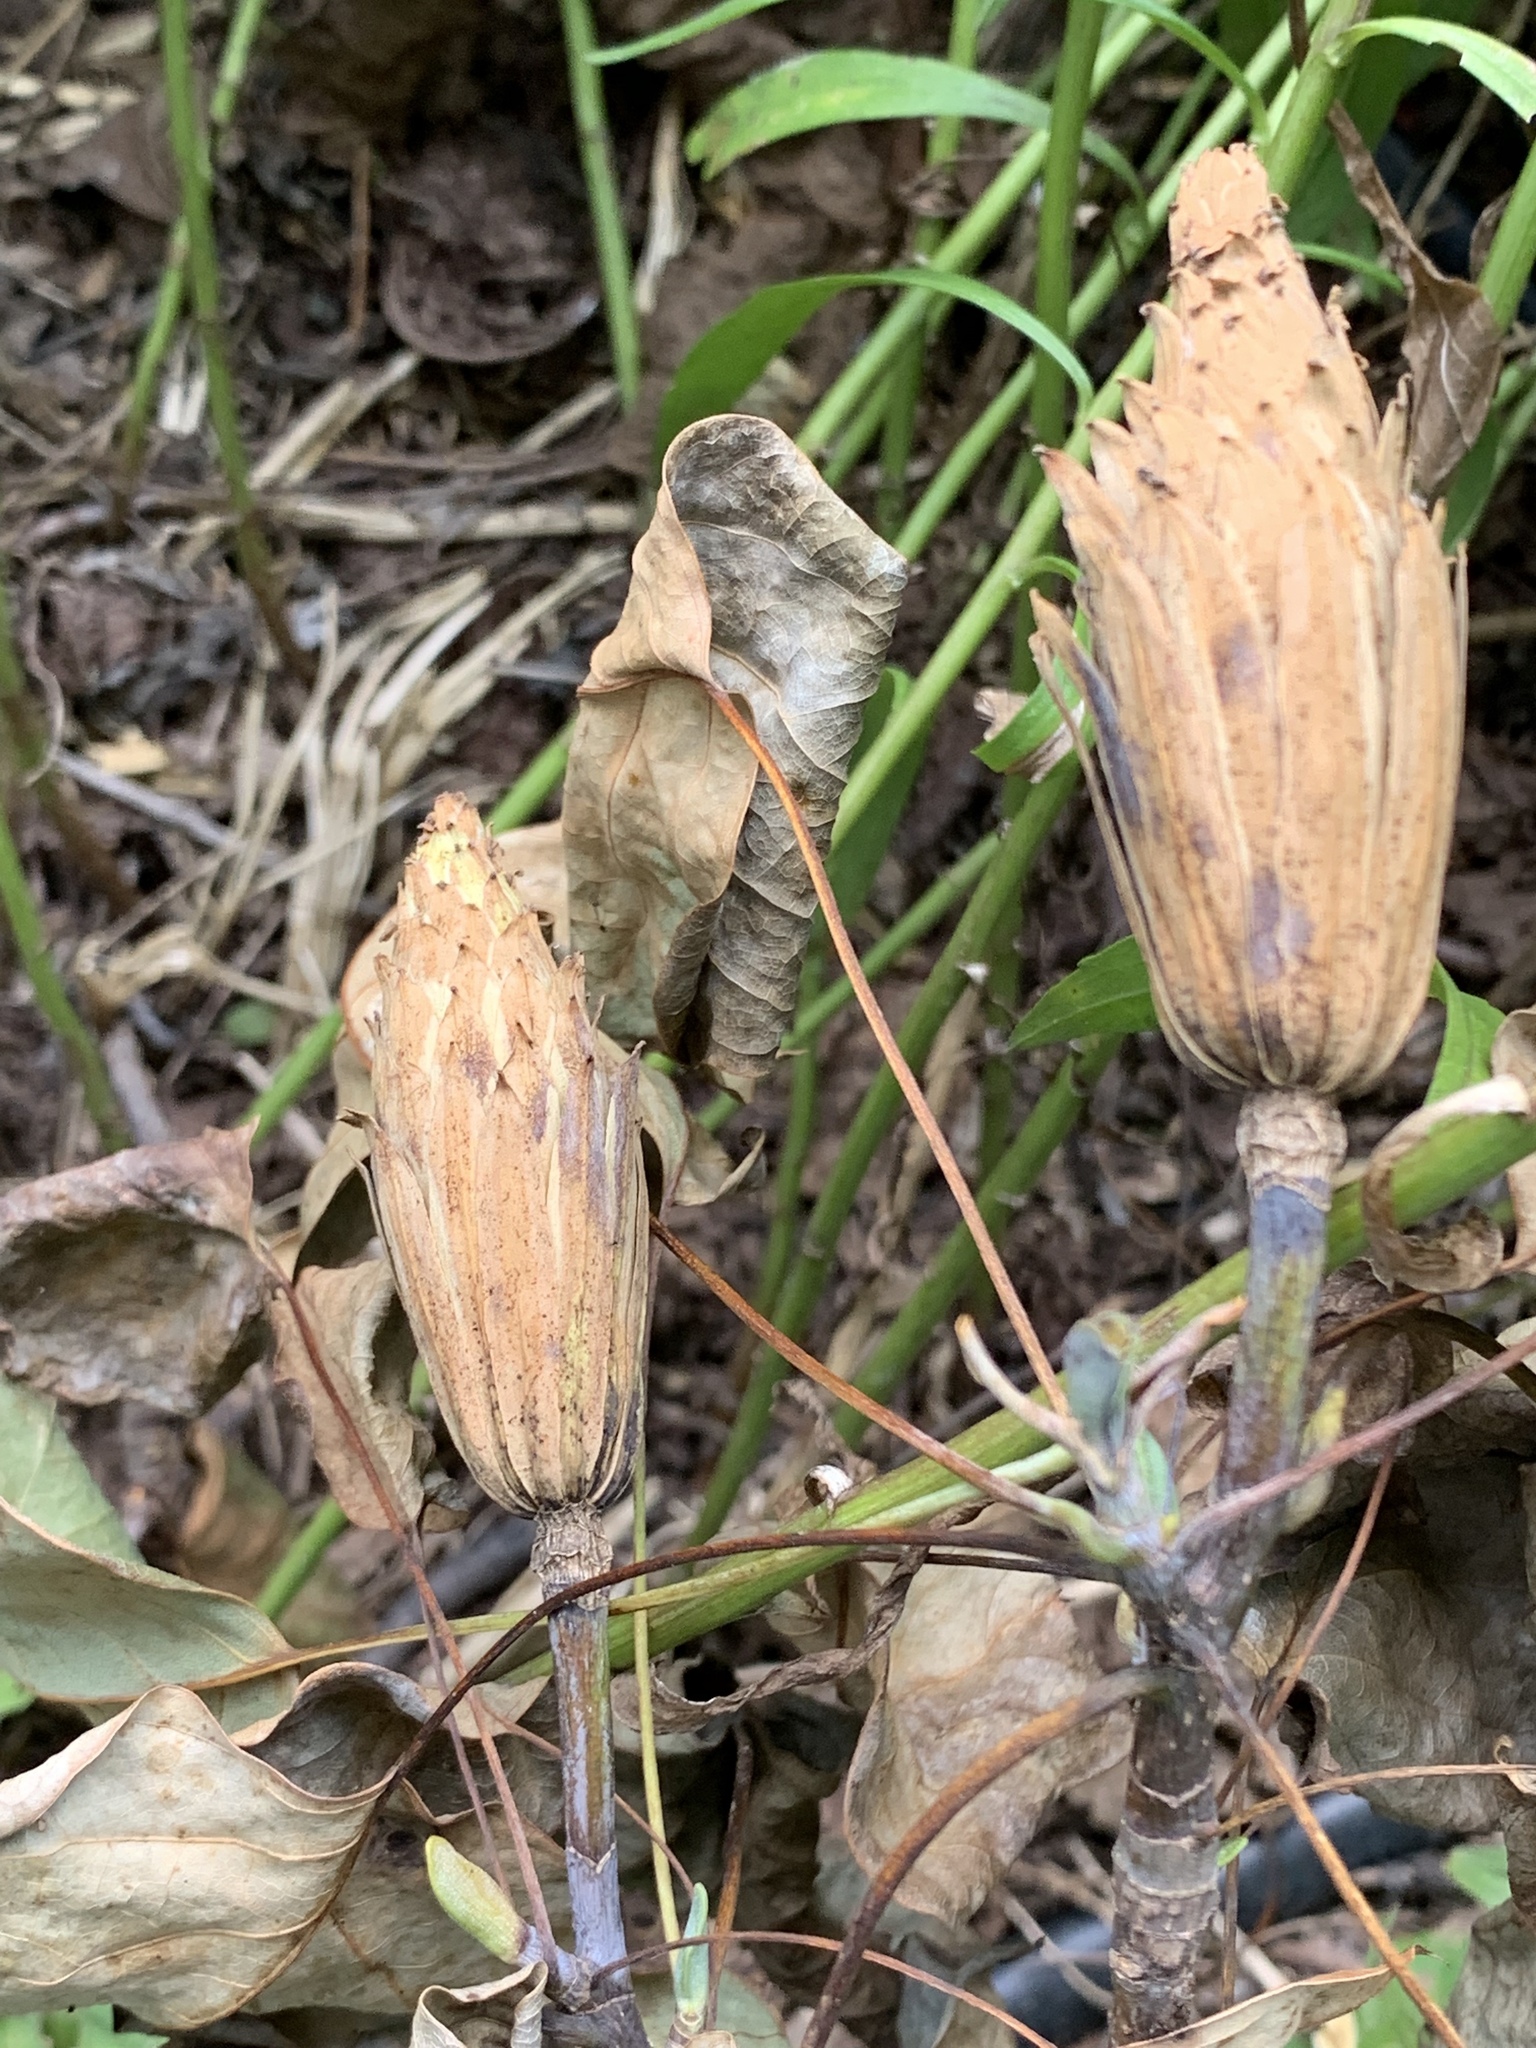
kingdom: Plantae
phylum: Tracheophyta
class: Magnoliopsida
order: Magnoliales
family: Magnoliaceae
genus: Liriodendron
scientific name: Liriodendron tulipifera
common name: Tulip tree
